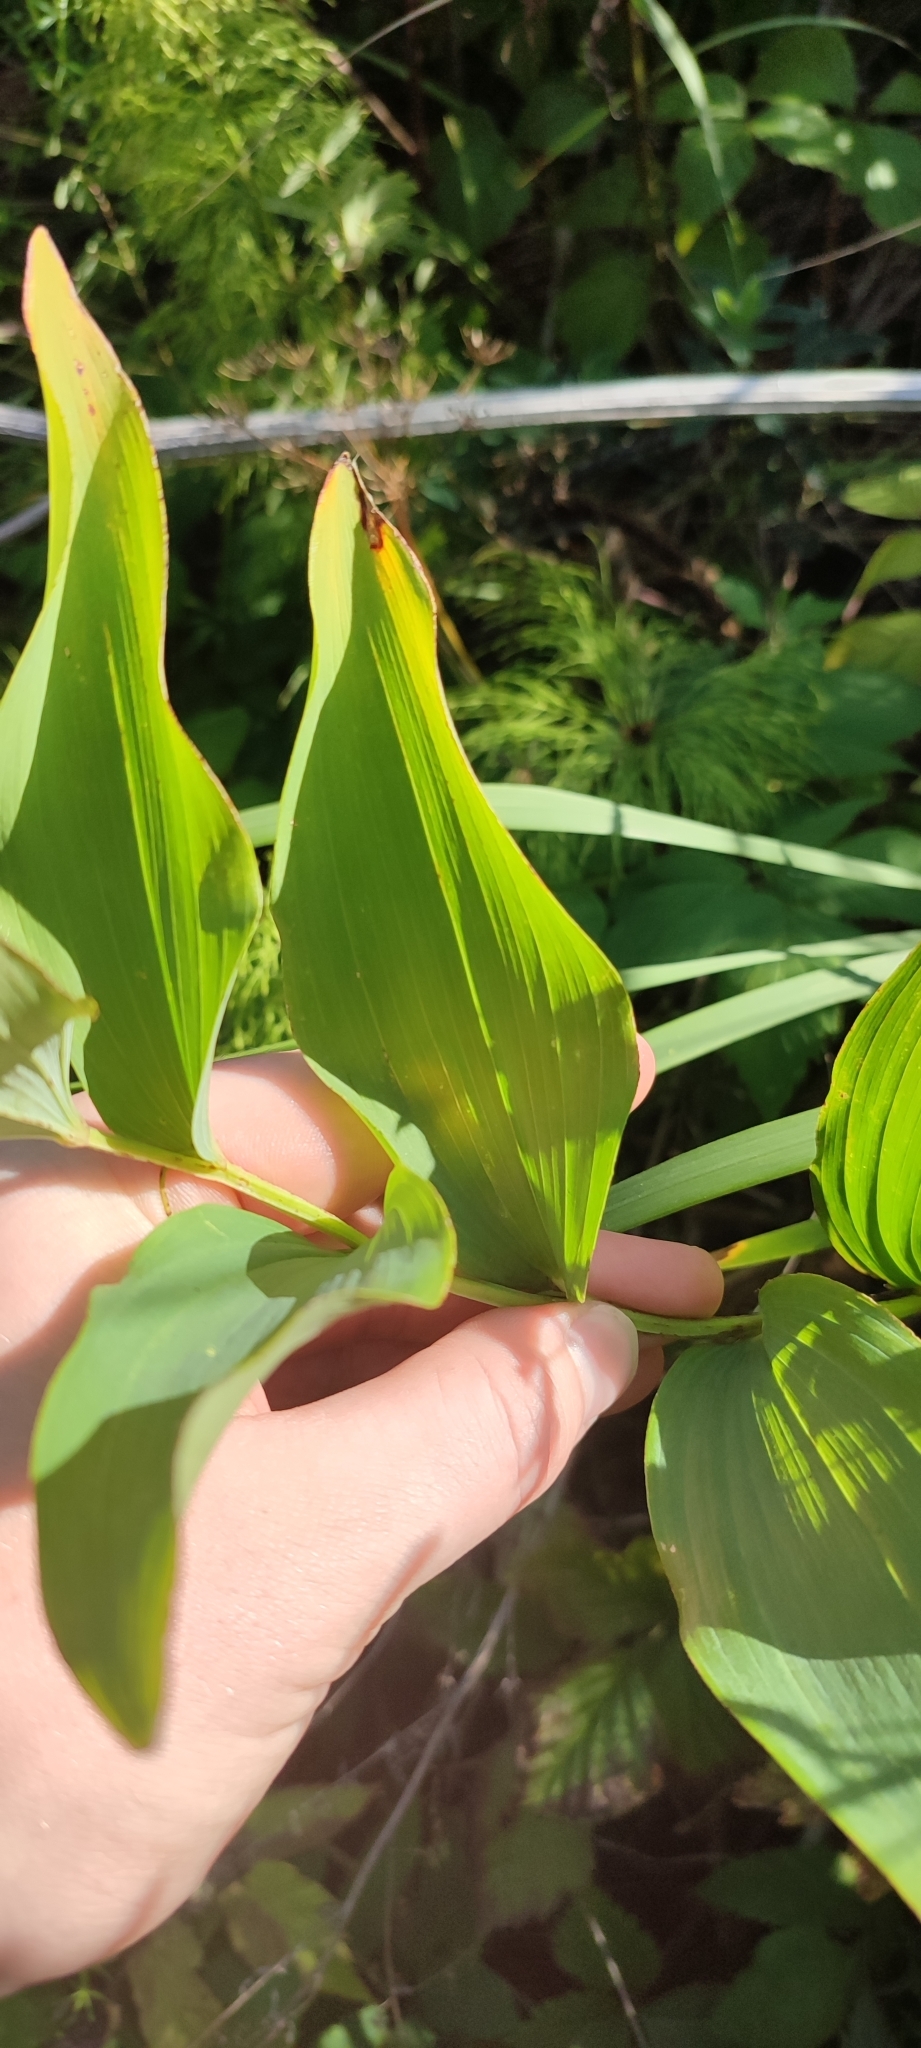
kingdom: Plantae
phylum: Tracheophyta
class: Liliopsida
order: Asparagales
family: Asparagaceae
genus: Polygonatum
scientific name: Polygonatum odoratum
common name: Angular solomon's-seal
